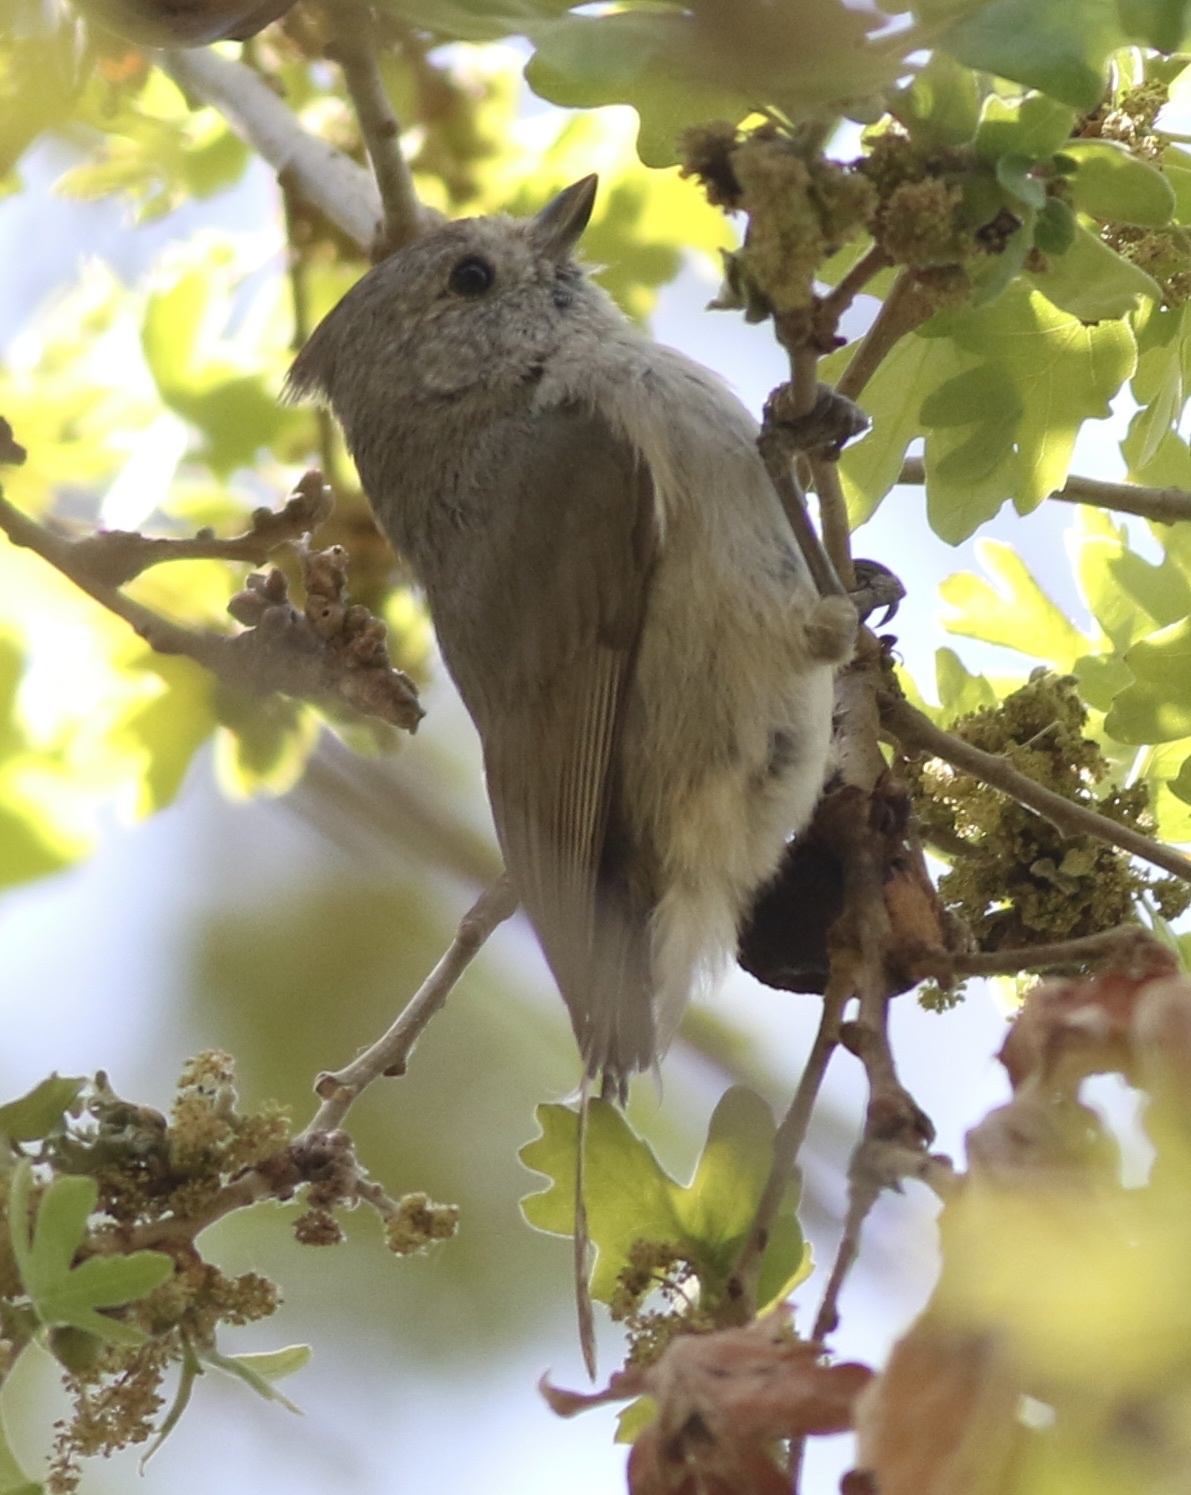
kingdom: Animalia
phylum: Chordata
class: Aves
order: Passeriformes
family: Paridae
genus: Baeolophus
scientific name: Baeolophus inornatus
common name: Oak titmouse
